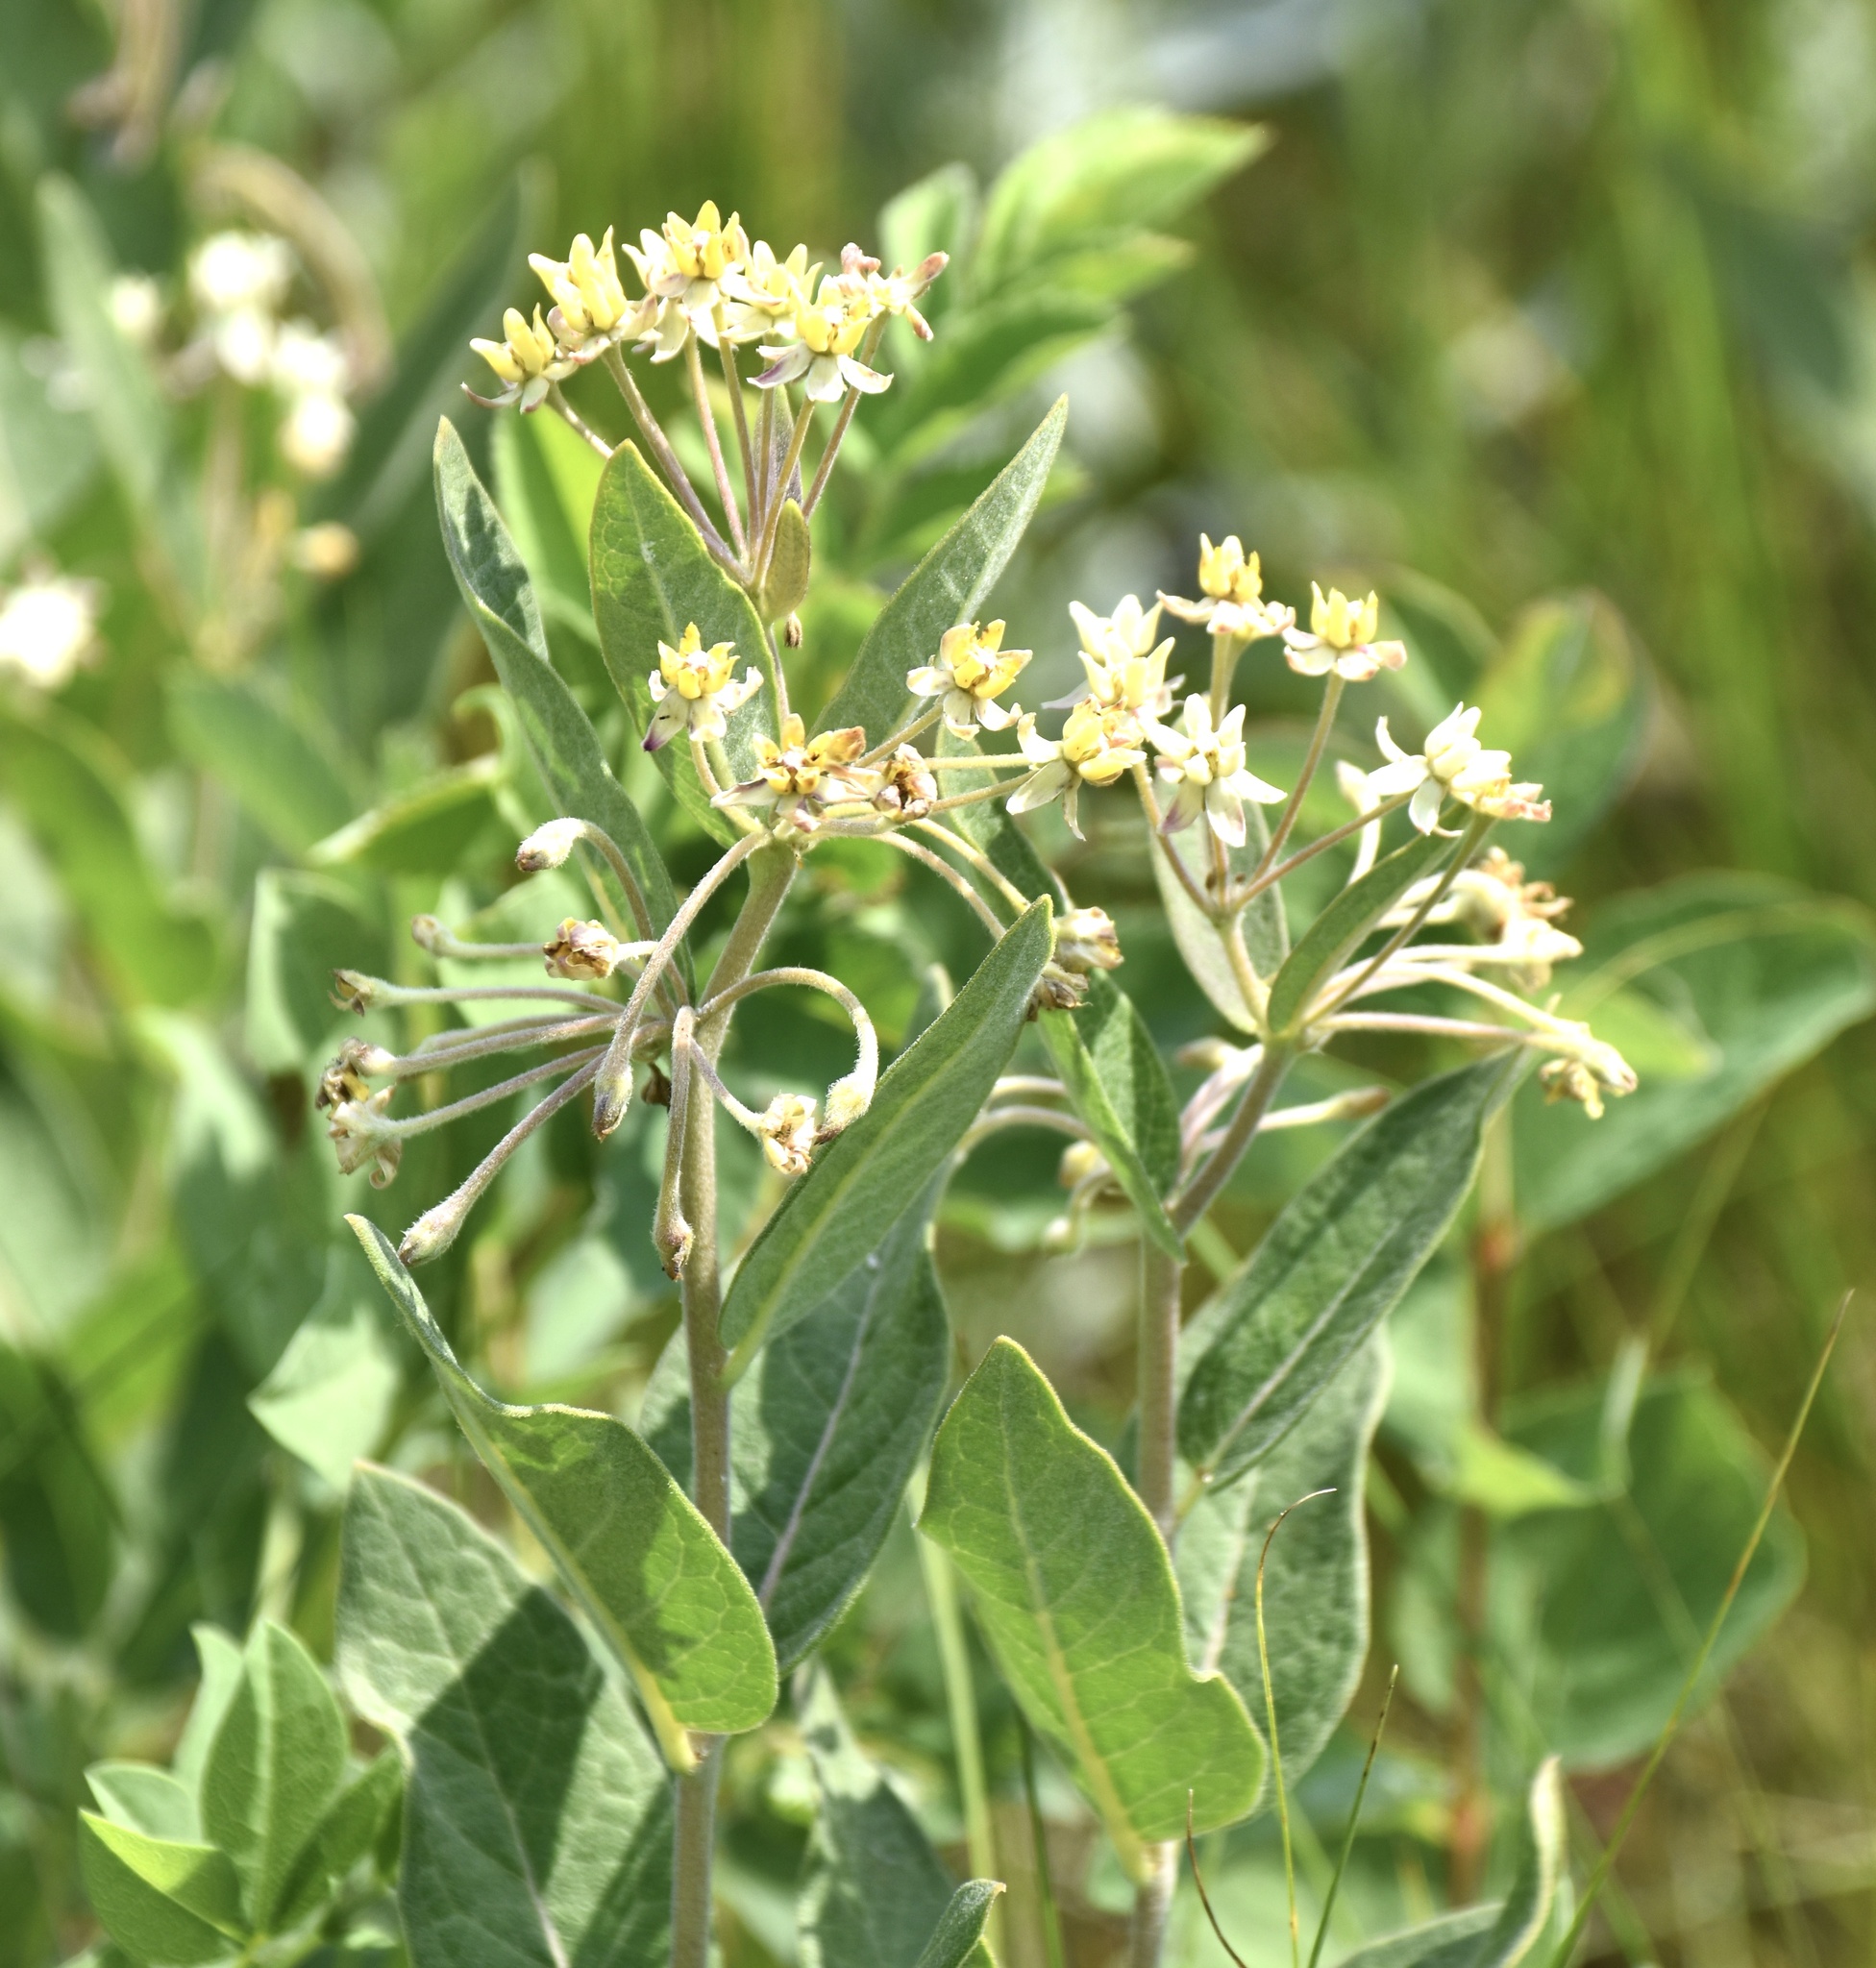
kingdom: Plantae
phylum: Tracheophyta
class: Magnoliopsida
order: Gentianales
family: Apocynaceae
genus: Asclepias
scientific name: Asclepias ovalifolia
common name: Dwarf milkweed
